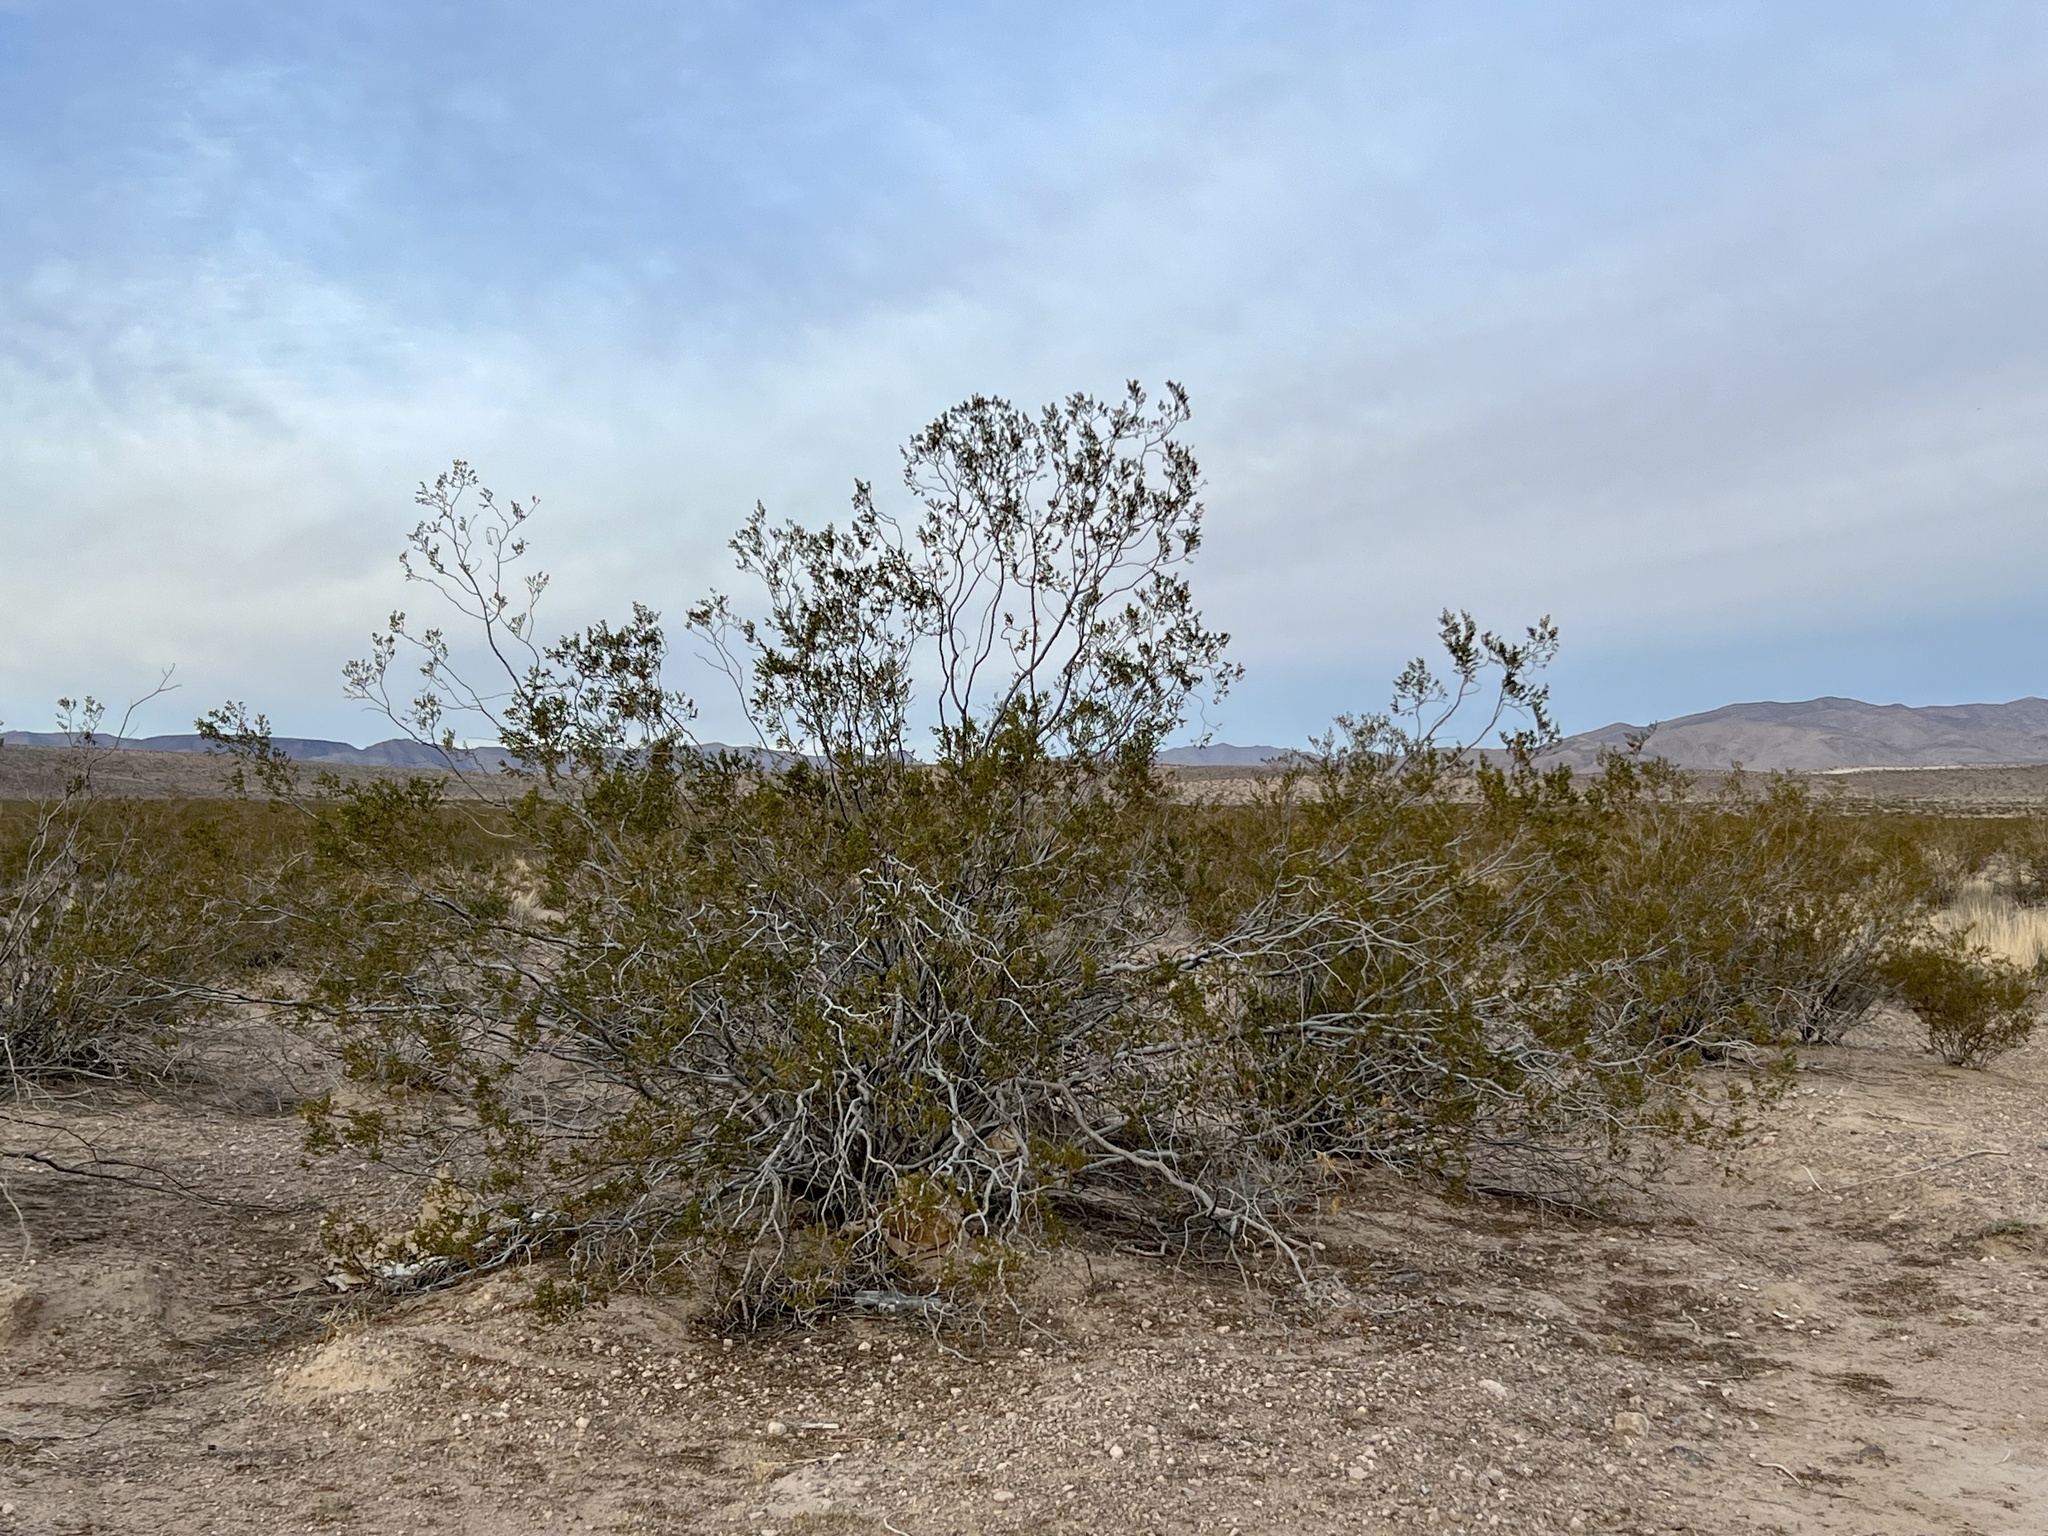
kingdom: Plantae
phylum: Tracheophyta
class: Magnoliopsida
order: Zygophyllales
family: Zygophyllaceae
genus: Larrea
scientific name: Larrea tridentata
